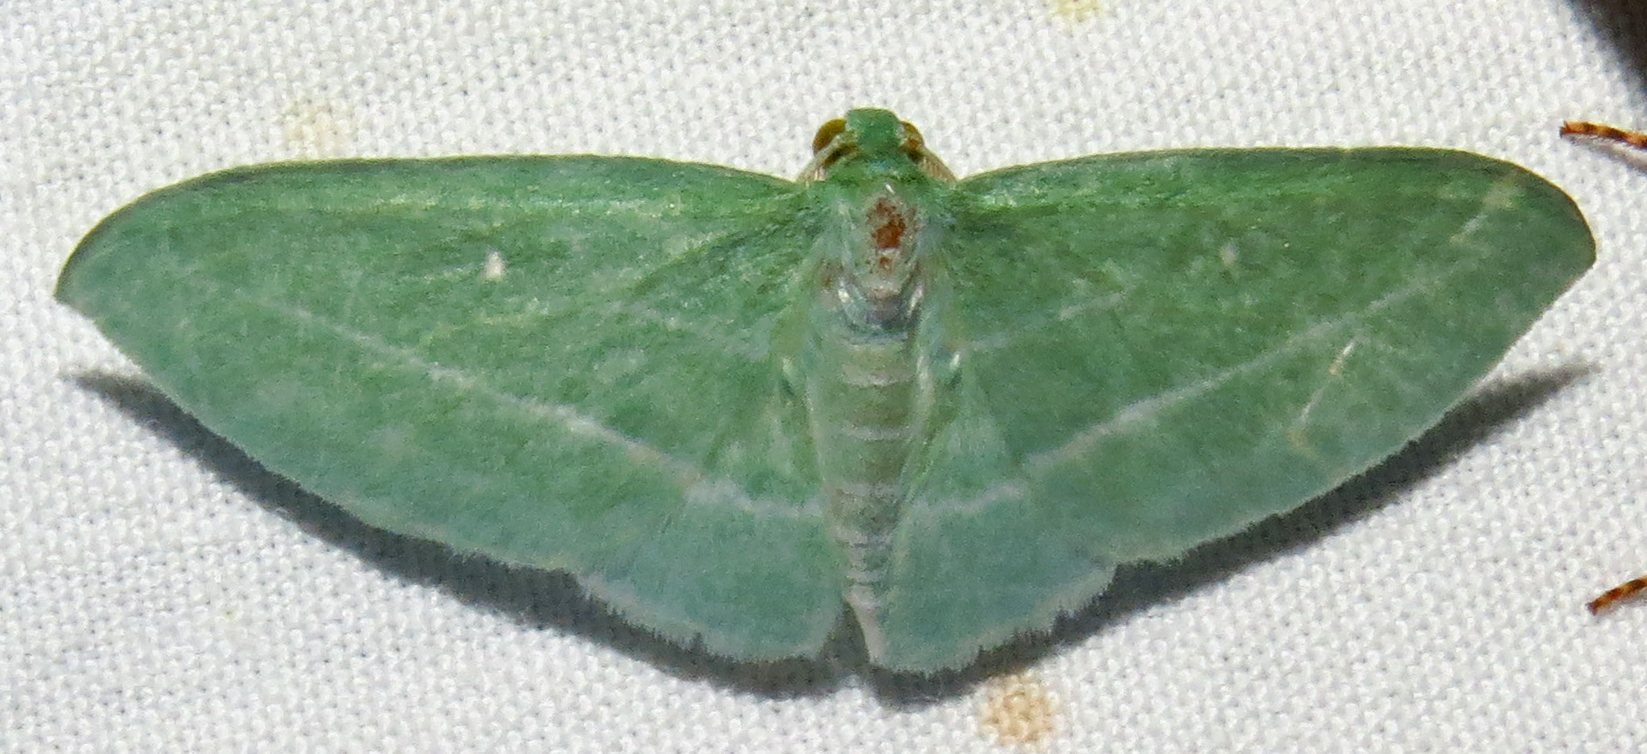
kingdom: Animalia
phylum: Arthropoda
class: Insecta
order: Lepidoptera
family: Geometridae
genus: Dyspteris
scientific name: Dyspteris abortivaria
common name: Bad-wing
